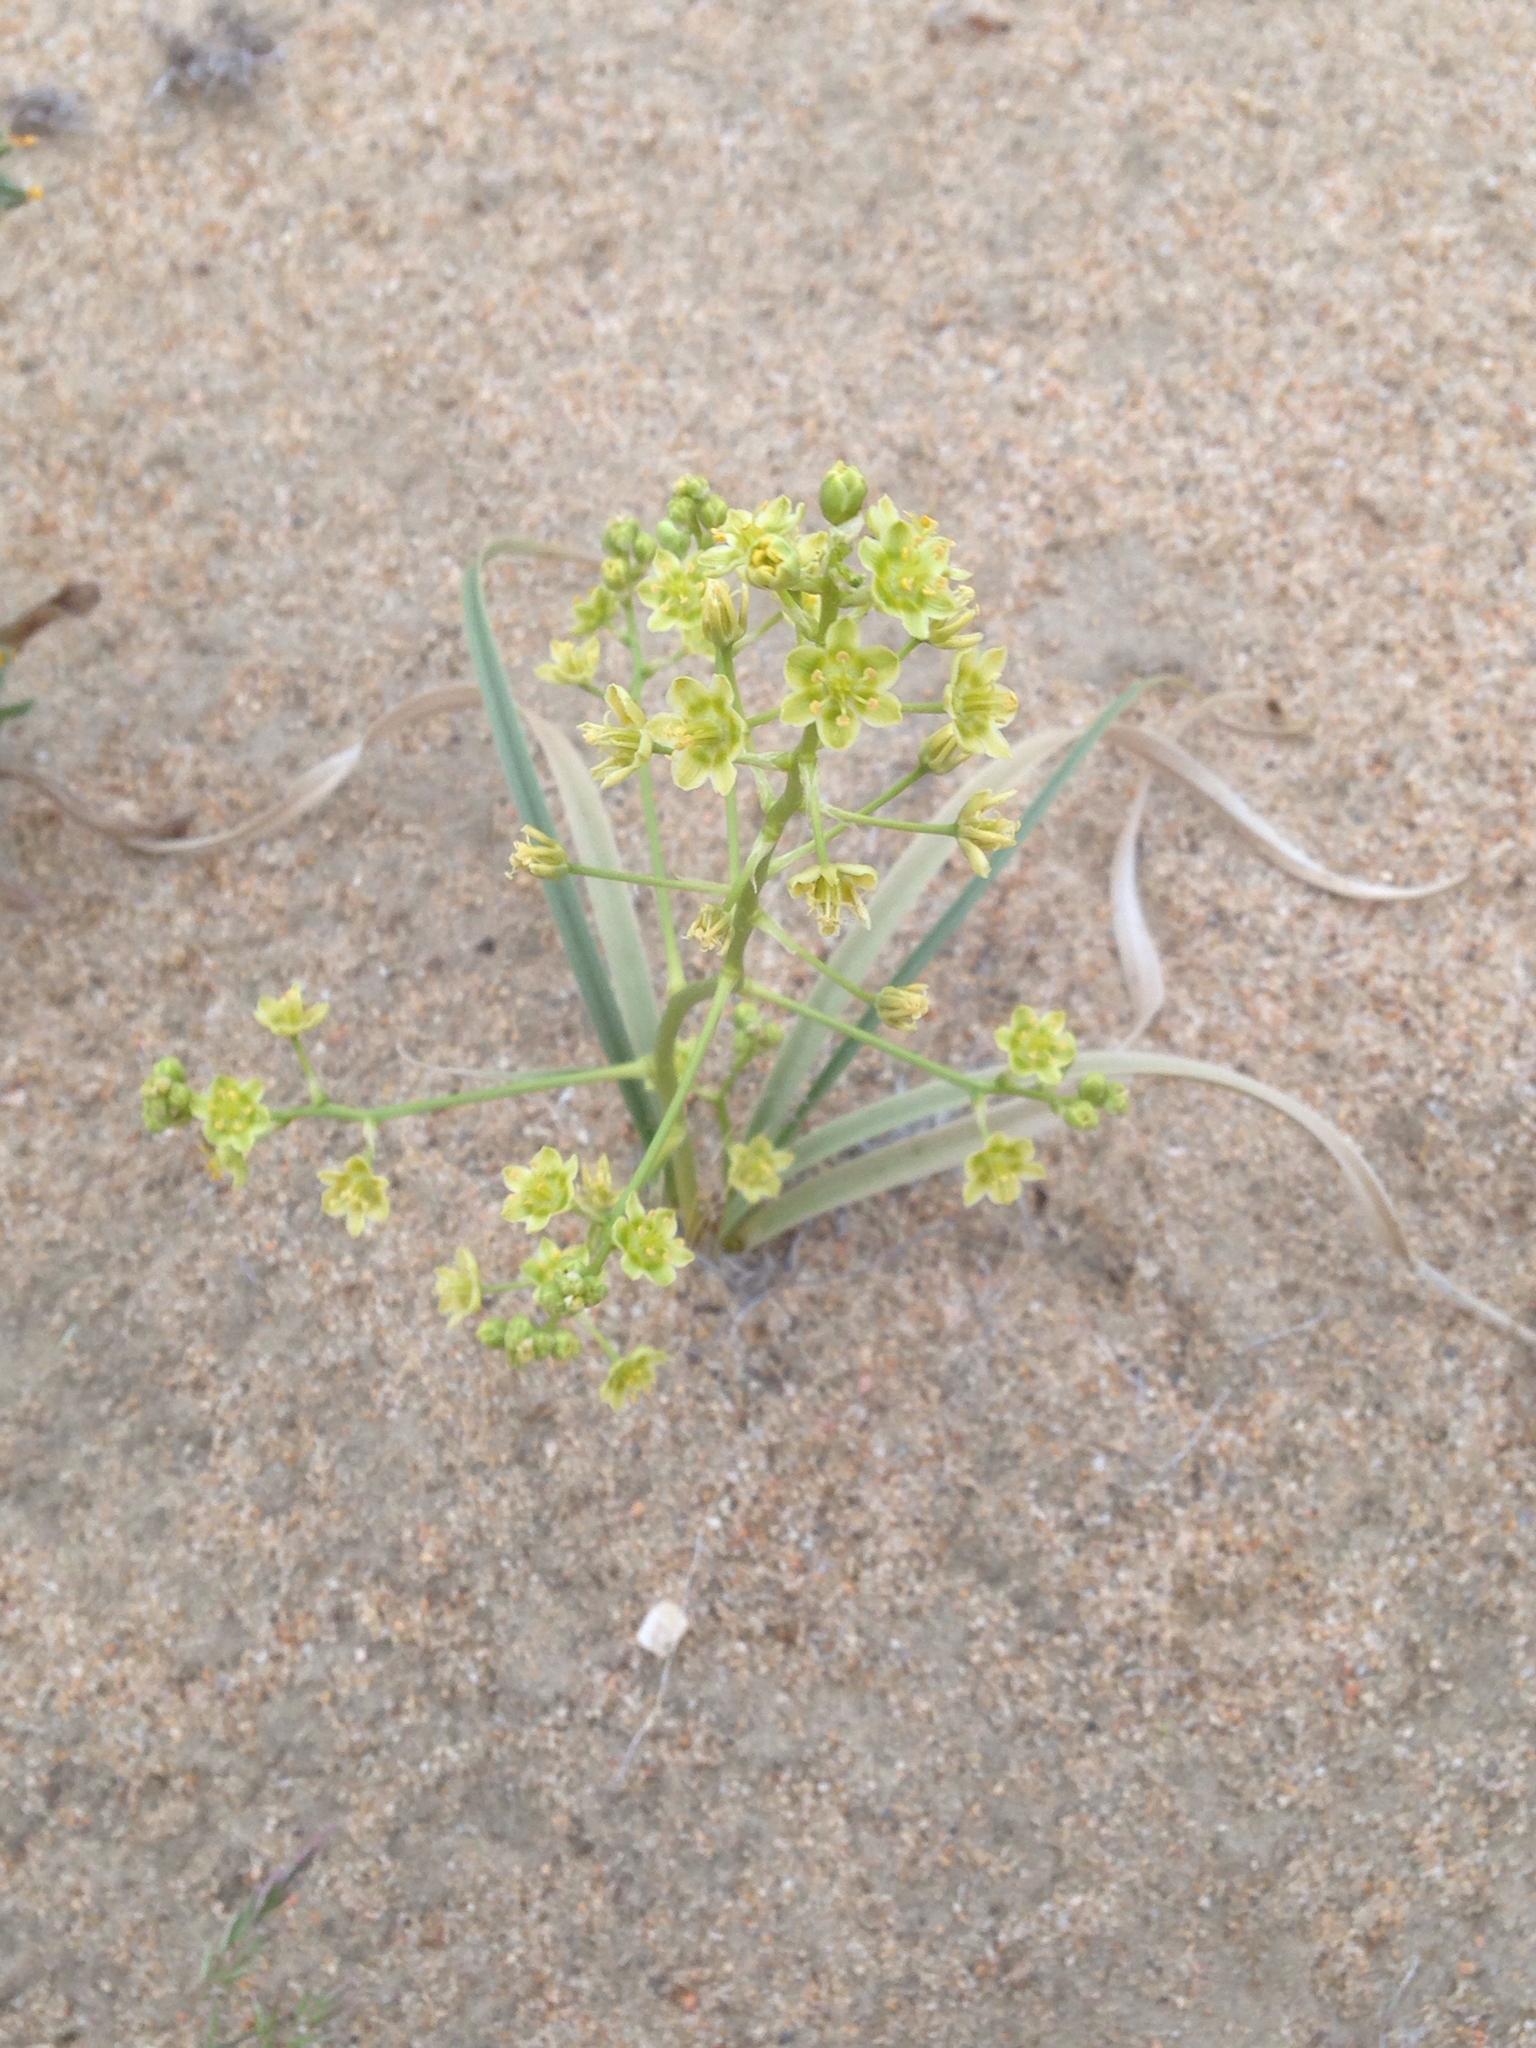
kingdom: Plantae
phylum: Tracheophyta
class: Liliopsida
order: Liliales
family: Melanthiaceae
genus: Toxicoscordion
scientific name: Toxicoscordion brevibracteatum
